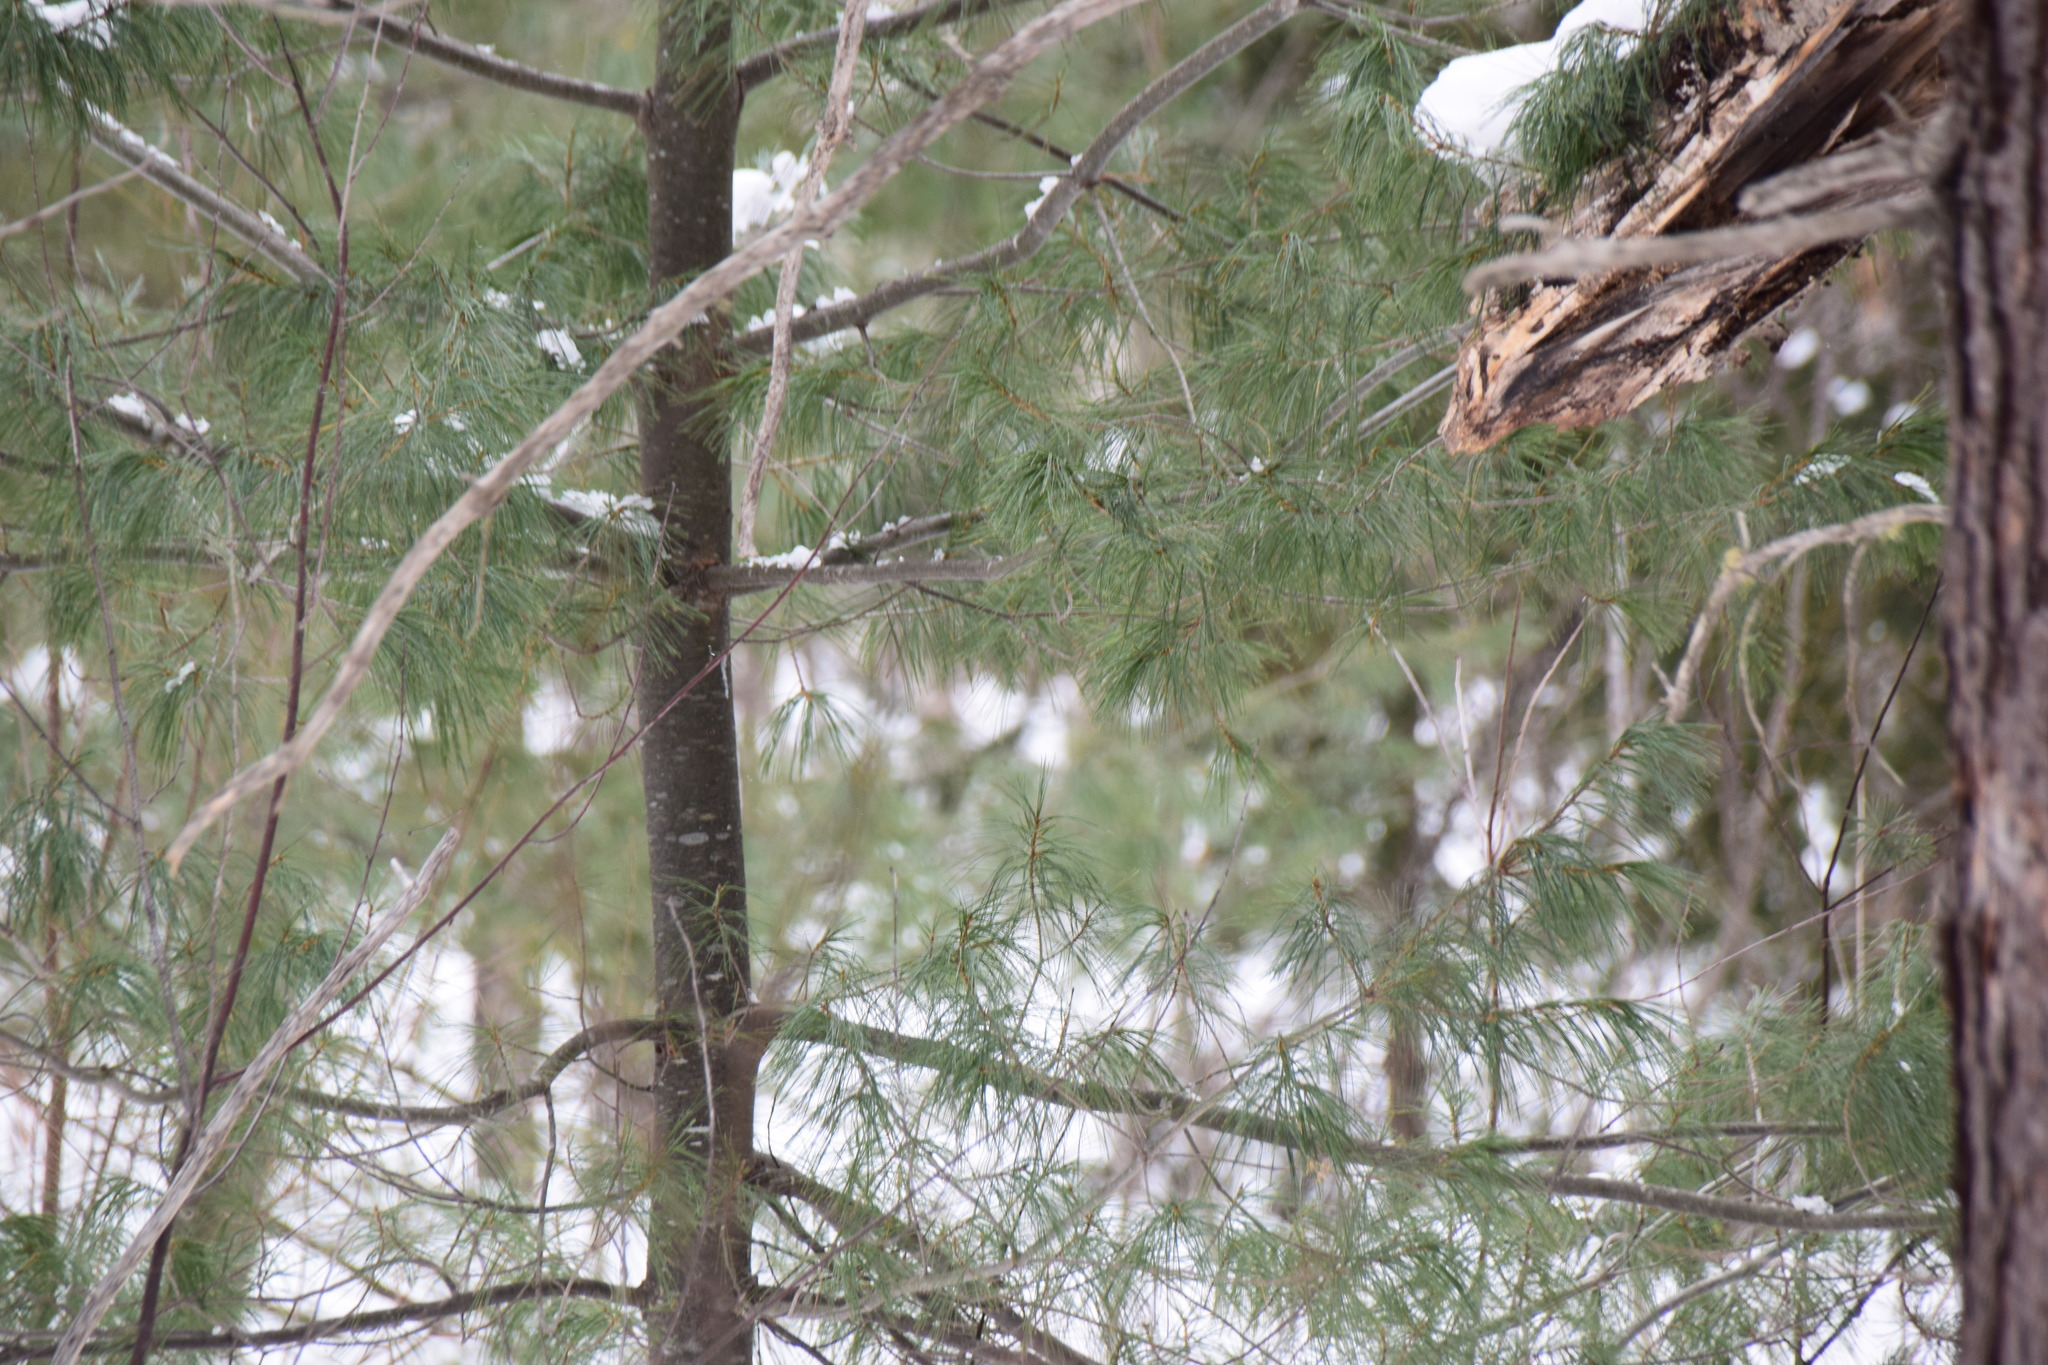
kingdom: Plantae
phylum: Tracheophyta
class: Pinopsida
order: Pinales
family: Pinaceae
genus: Pinus
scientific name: Pinus strobus
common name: Weymouth pine
